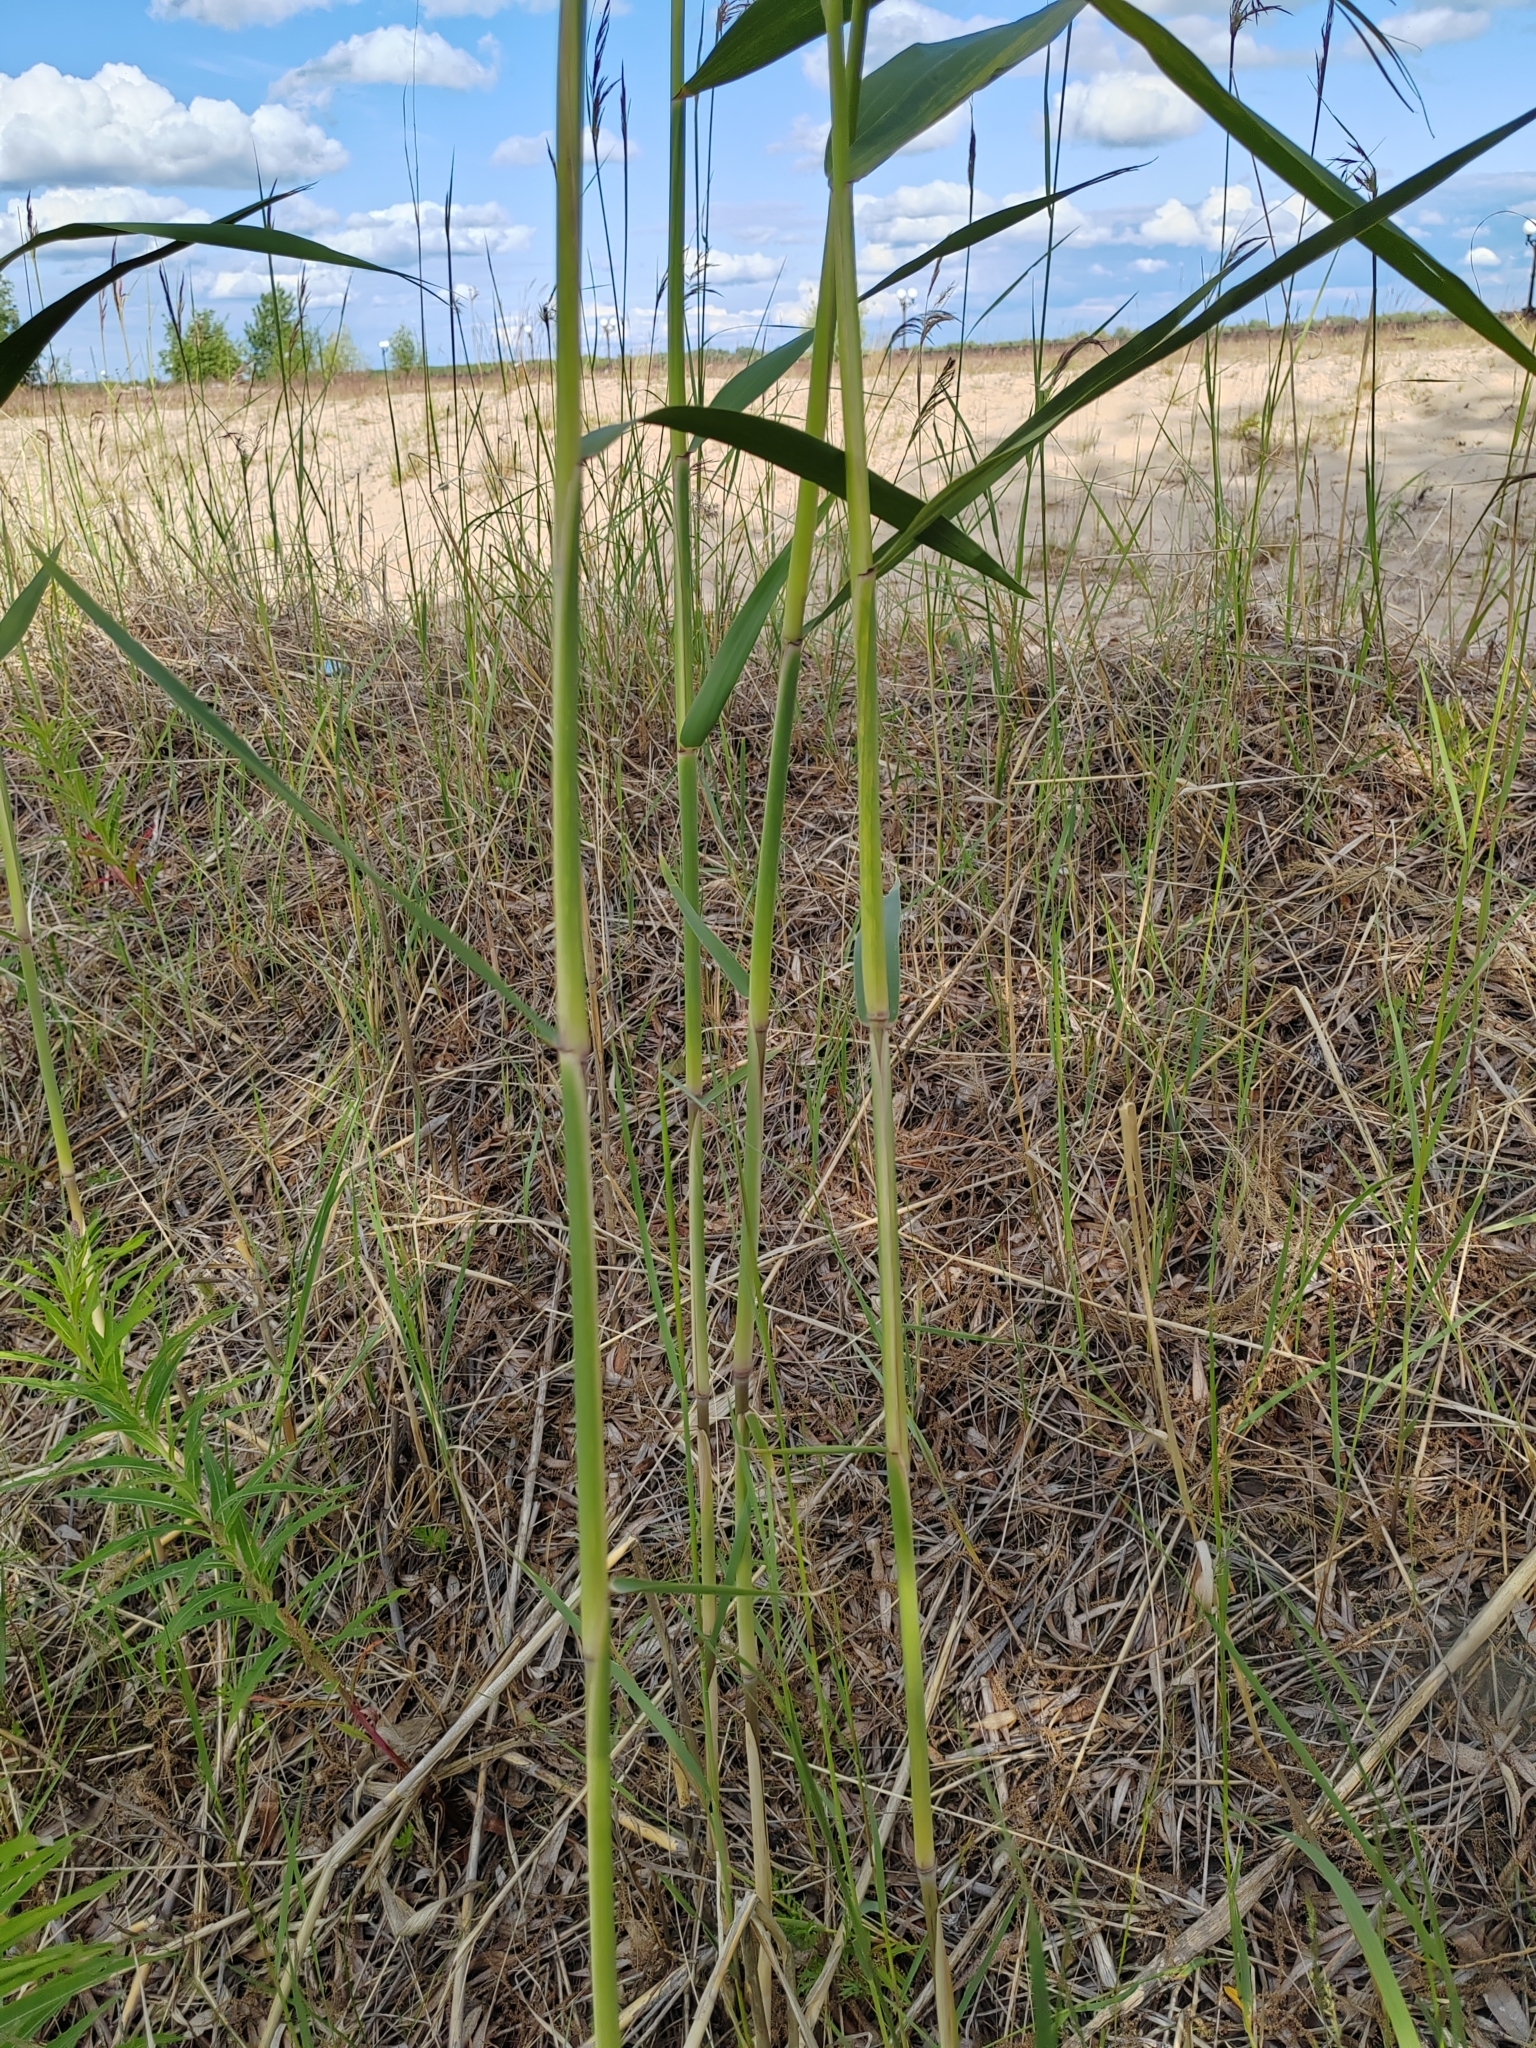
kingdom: Plantae
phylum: Tracheophyta
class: Liliopsida
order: Poales
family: Poaceae
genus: Phragmites
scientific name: Phragmites australis
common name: Common reed
